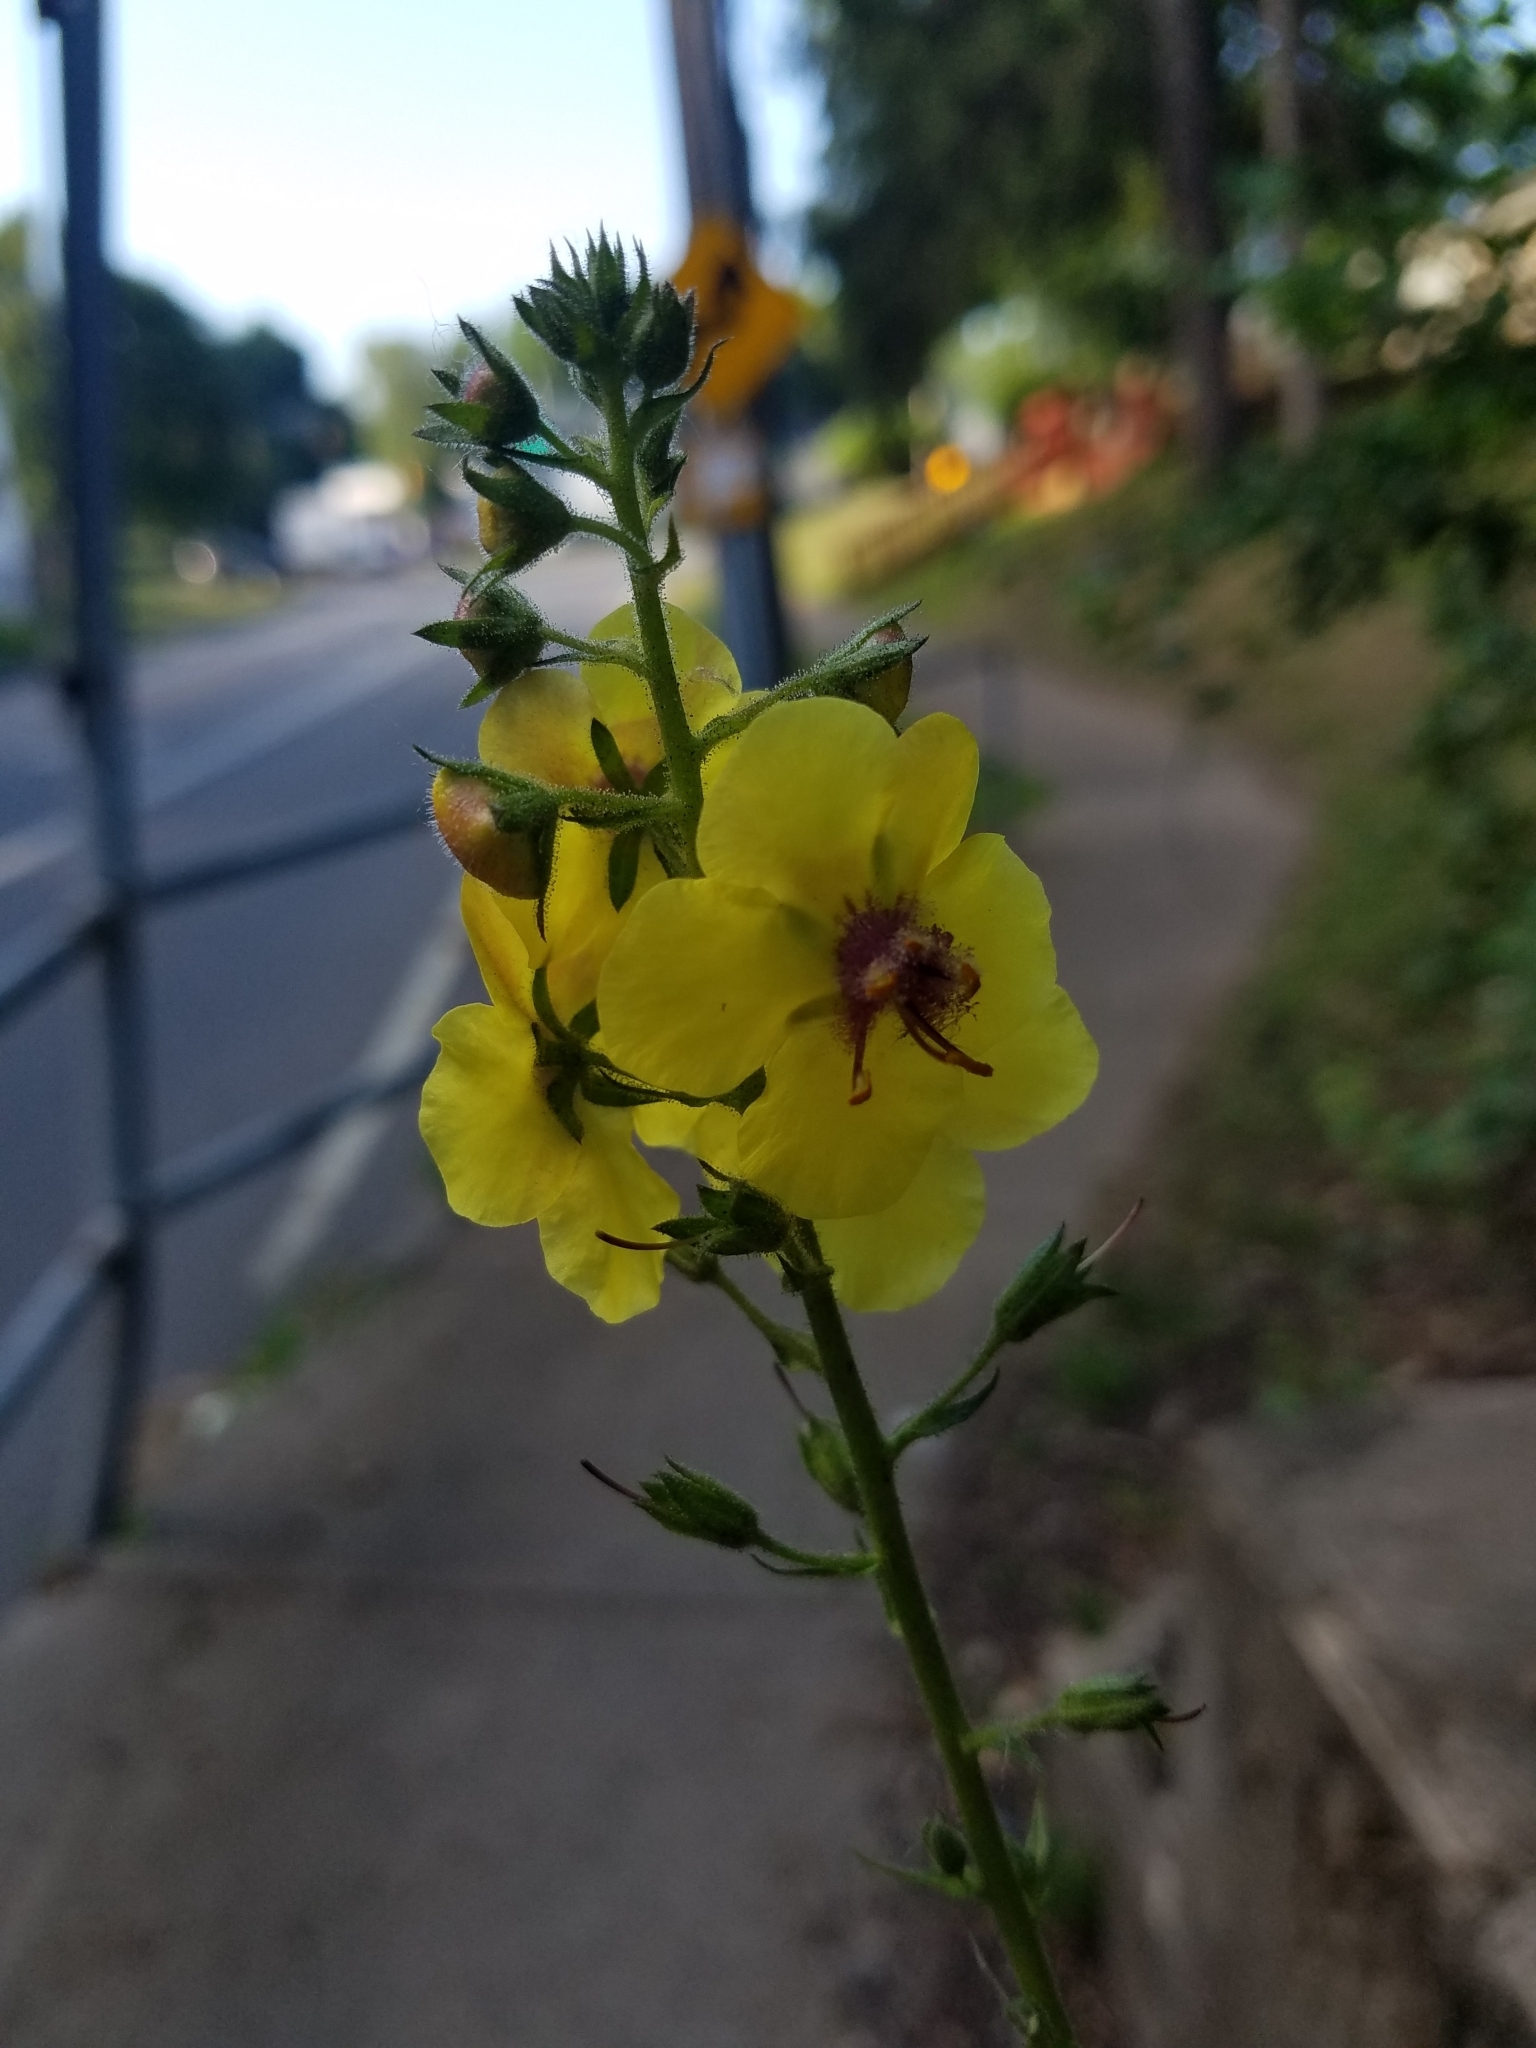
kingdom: Plantae
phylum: Tracheophyta
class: Magnoliopsida
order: Lamiales
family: Scrophulariaceae
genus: Verbascum
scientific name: Verbascum blattaria
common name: Moth mullein
